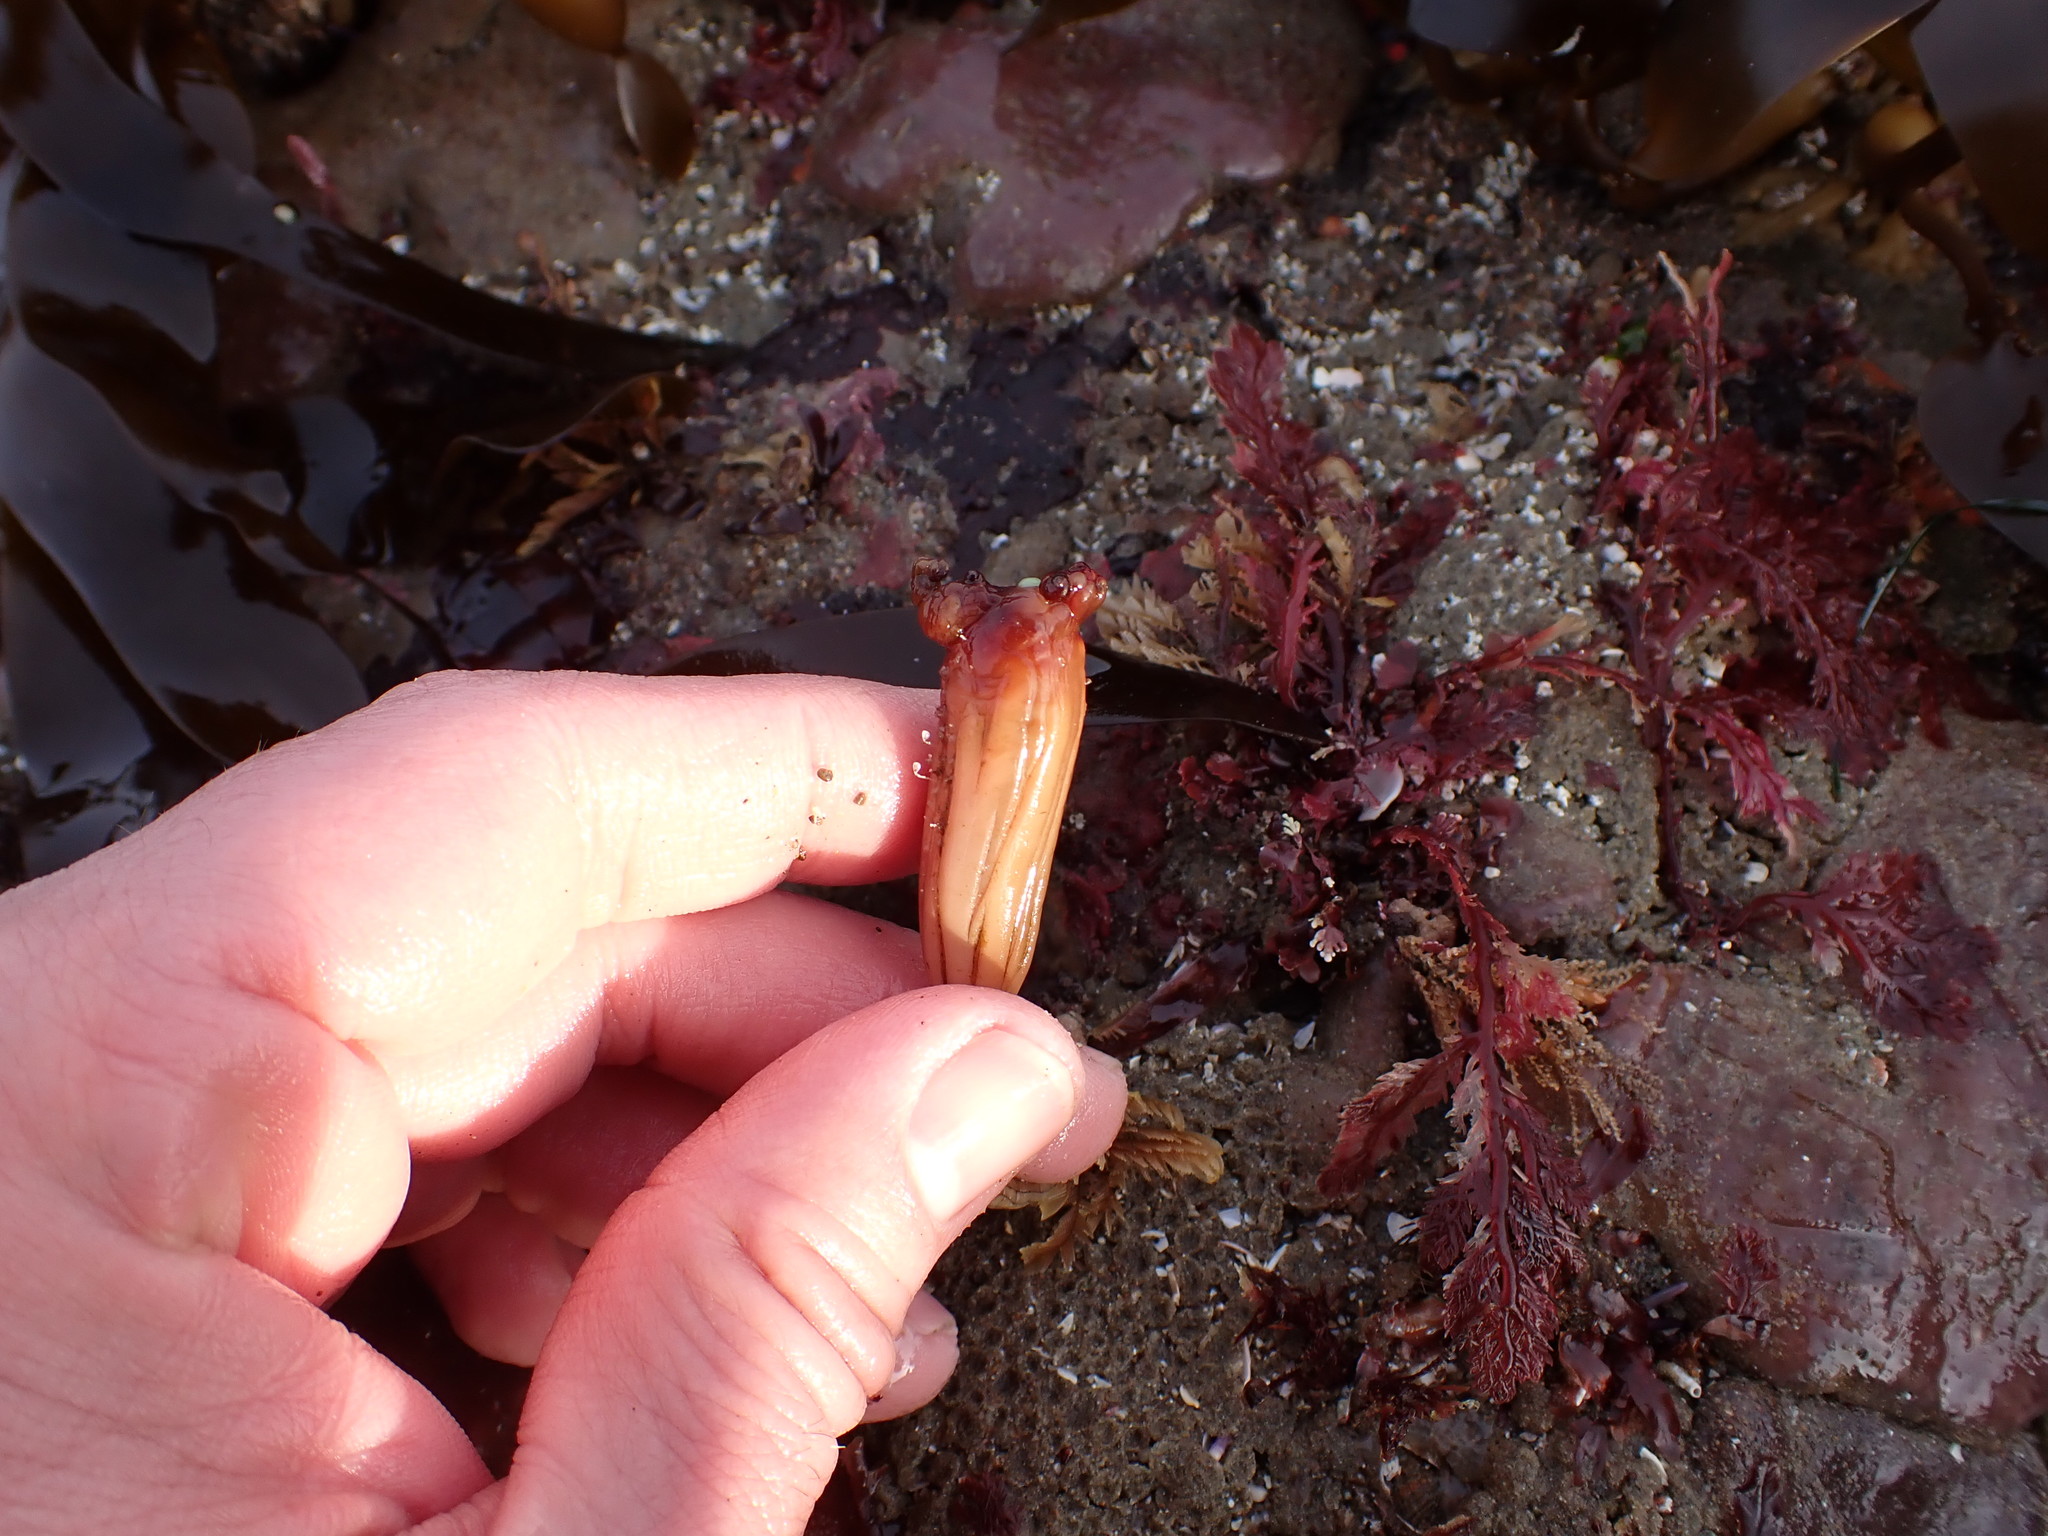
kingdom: Animalia
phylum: Chordata
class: Ascidiacea
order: Stolidobranchia
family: Styelidae
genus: Styela
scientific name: Styela montereyensis
